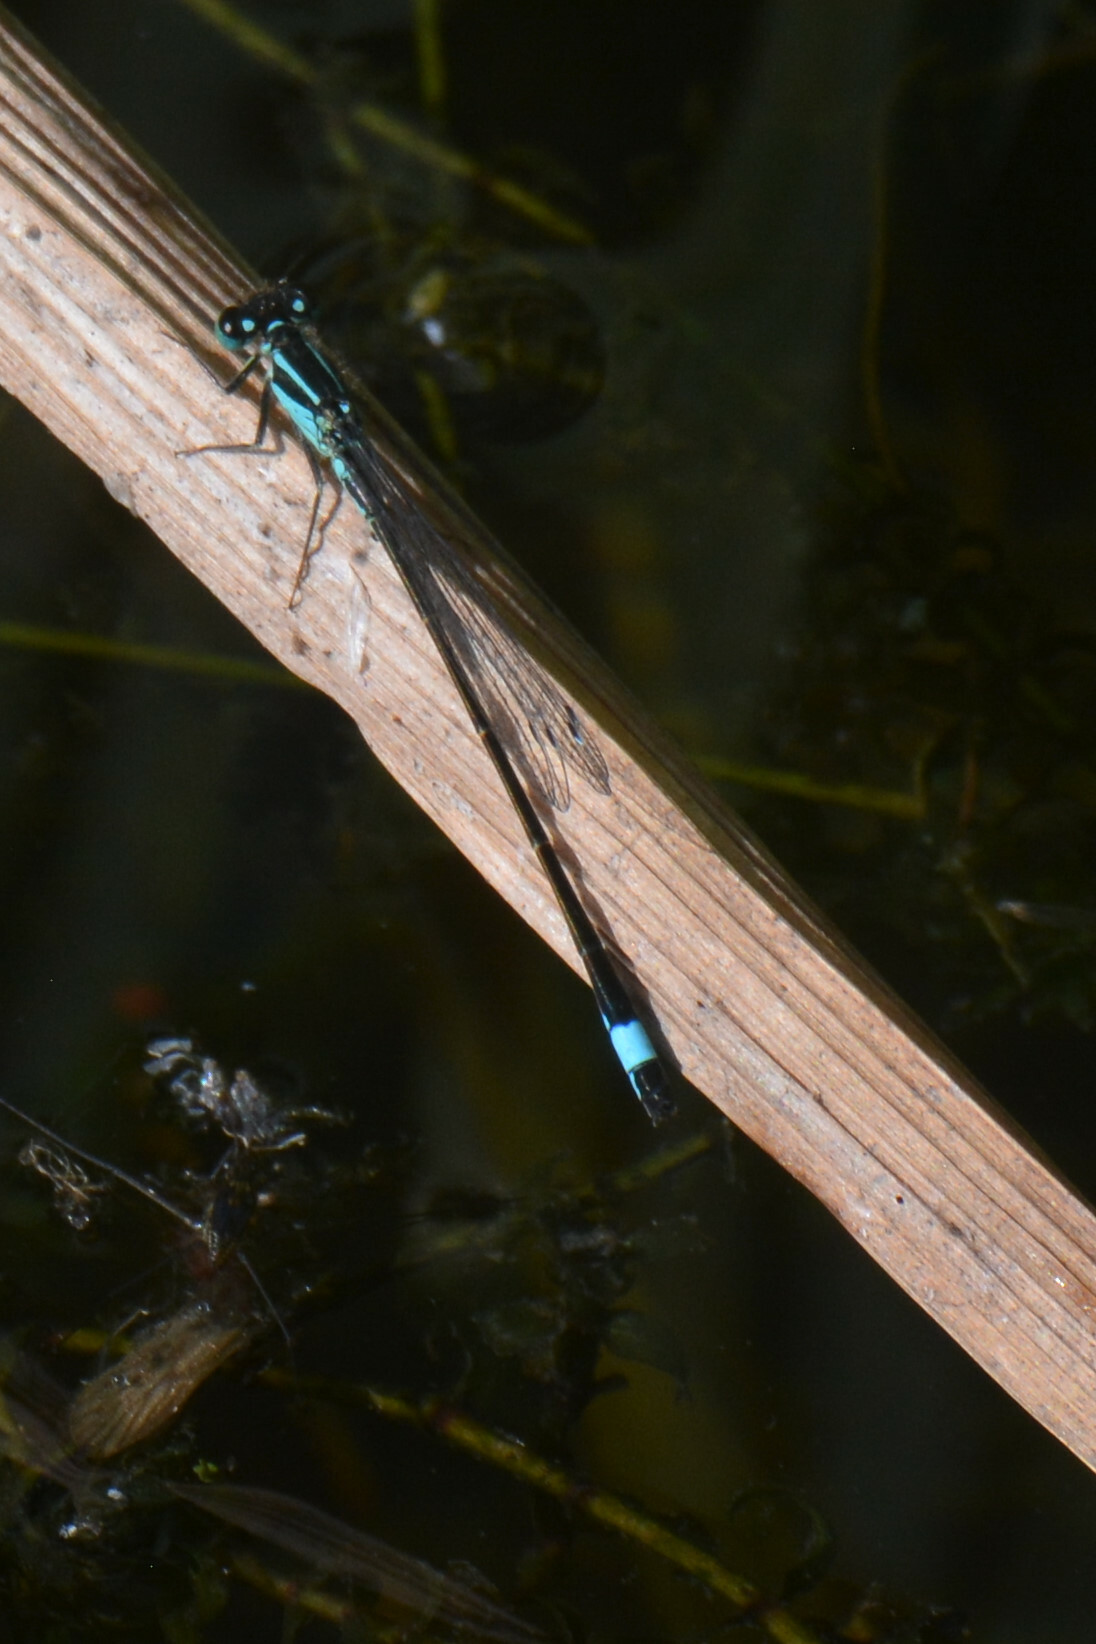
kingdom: Animalia
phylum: Arthropoda
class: Insecta
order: Odonata
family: Coenagrionidae
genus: Ischnura
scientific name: Ischnura elegans
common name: Blue-tailed damselfly
